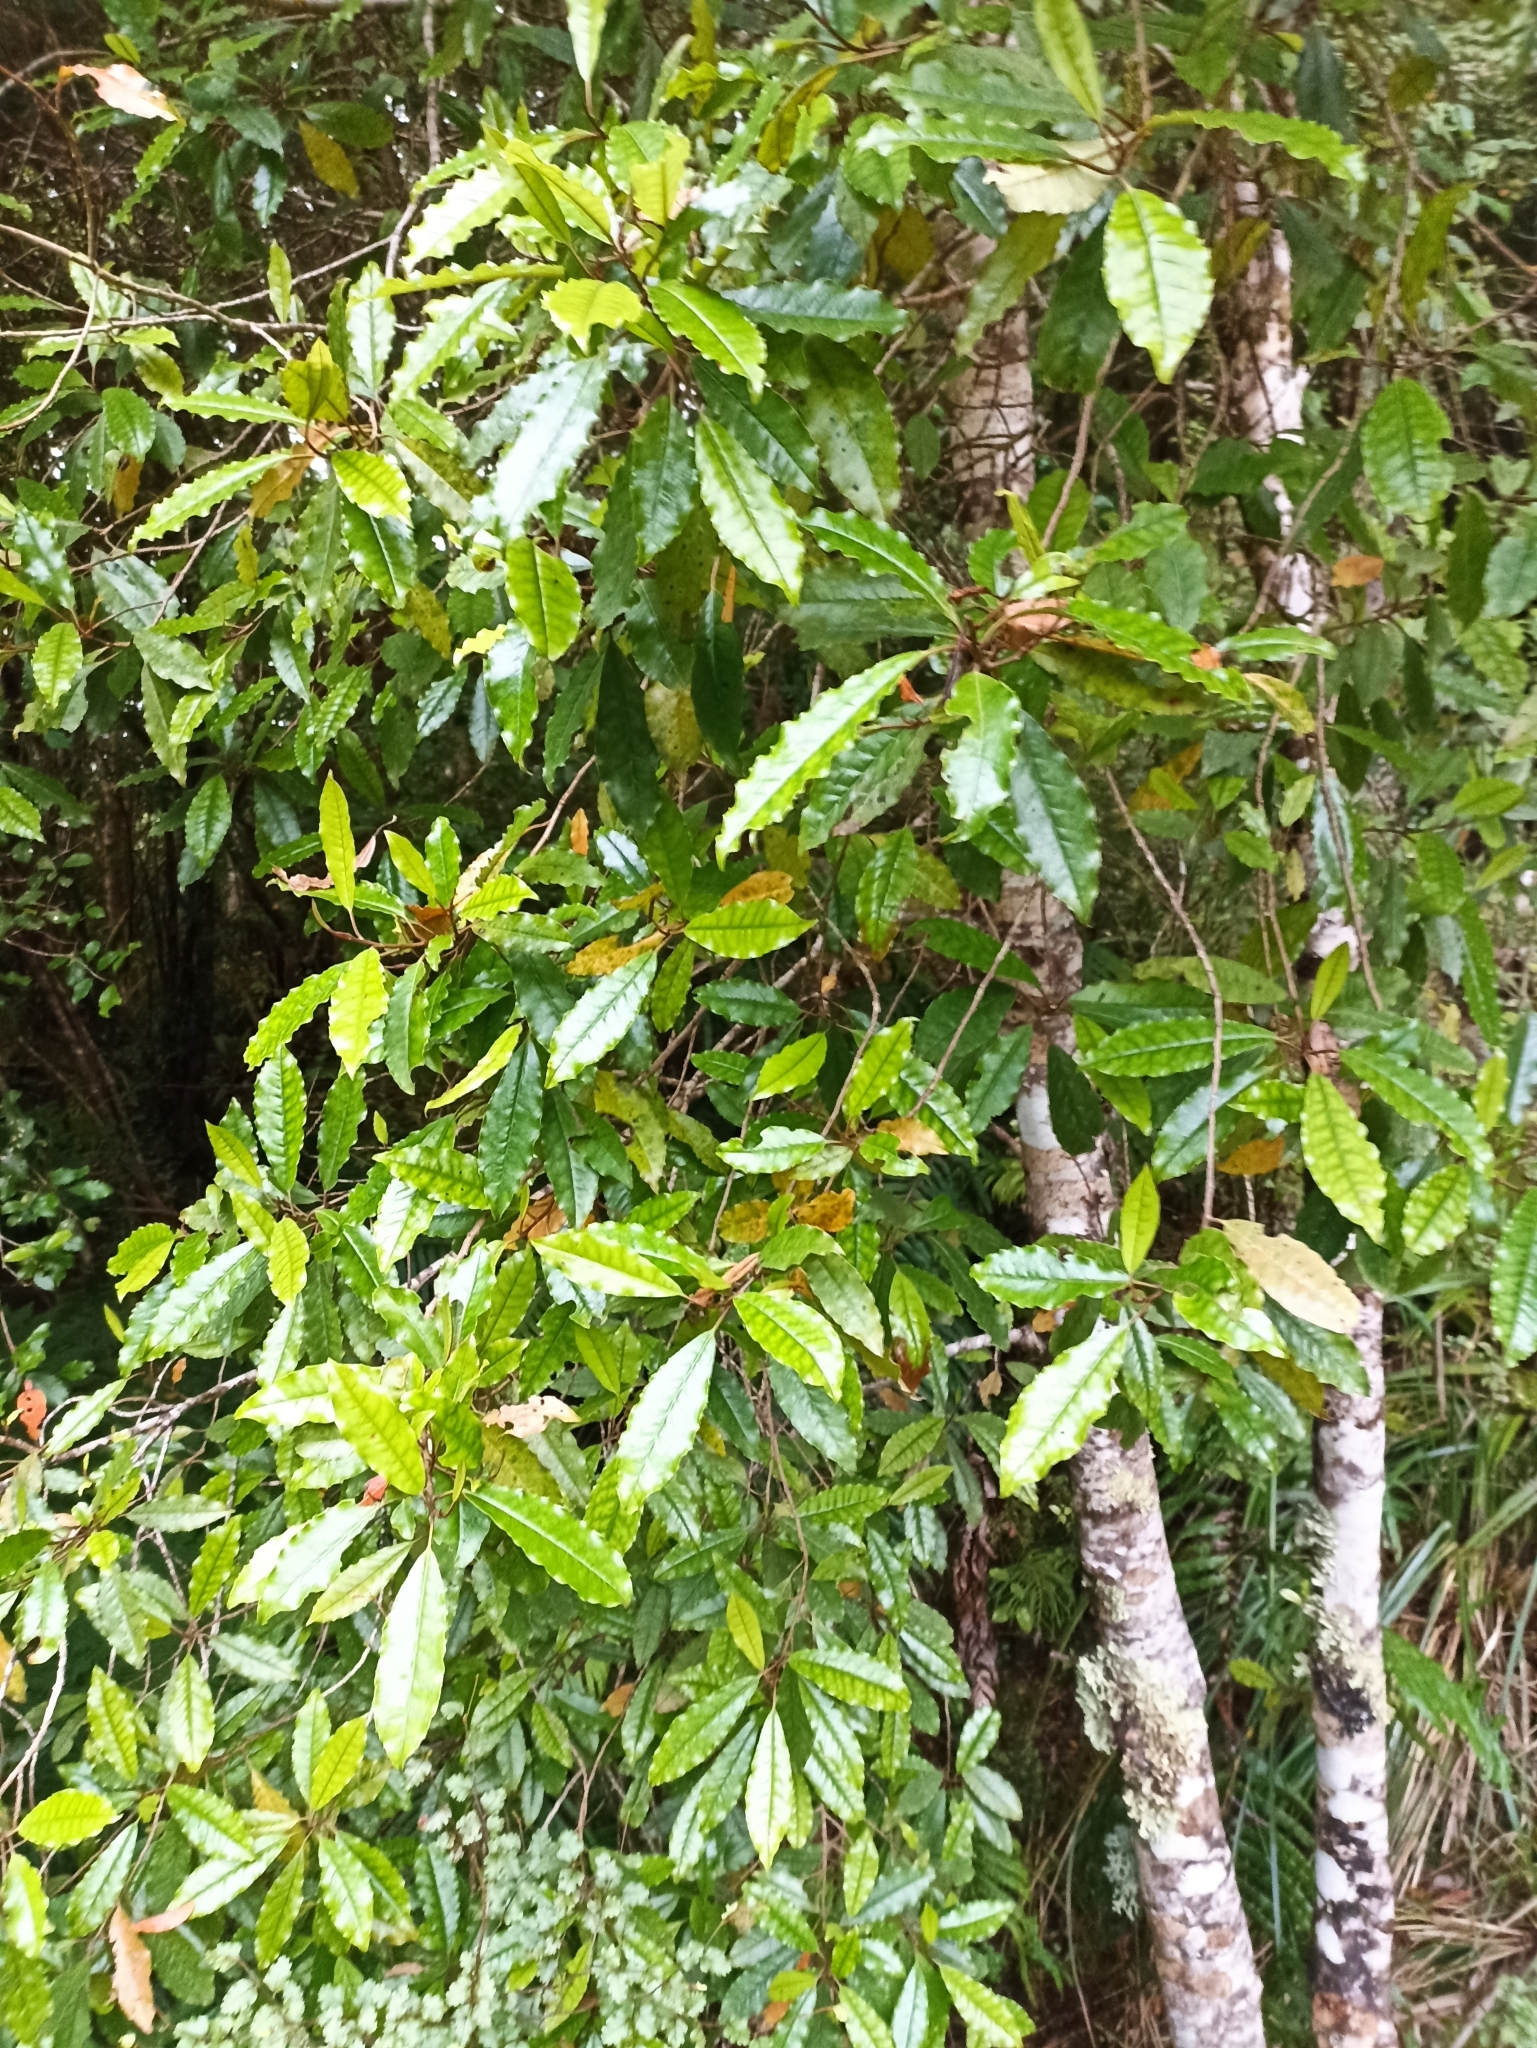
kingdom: Plantae
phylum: Tracheophyta
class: Magnoliopsida
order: Paracryphiales
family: Paracryphiaceae
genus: Quintinia
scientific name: Quintinia serrata
